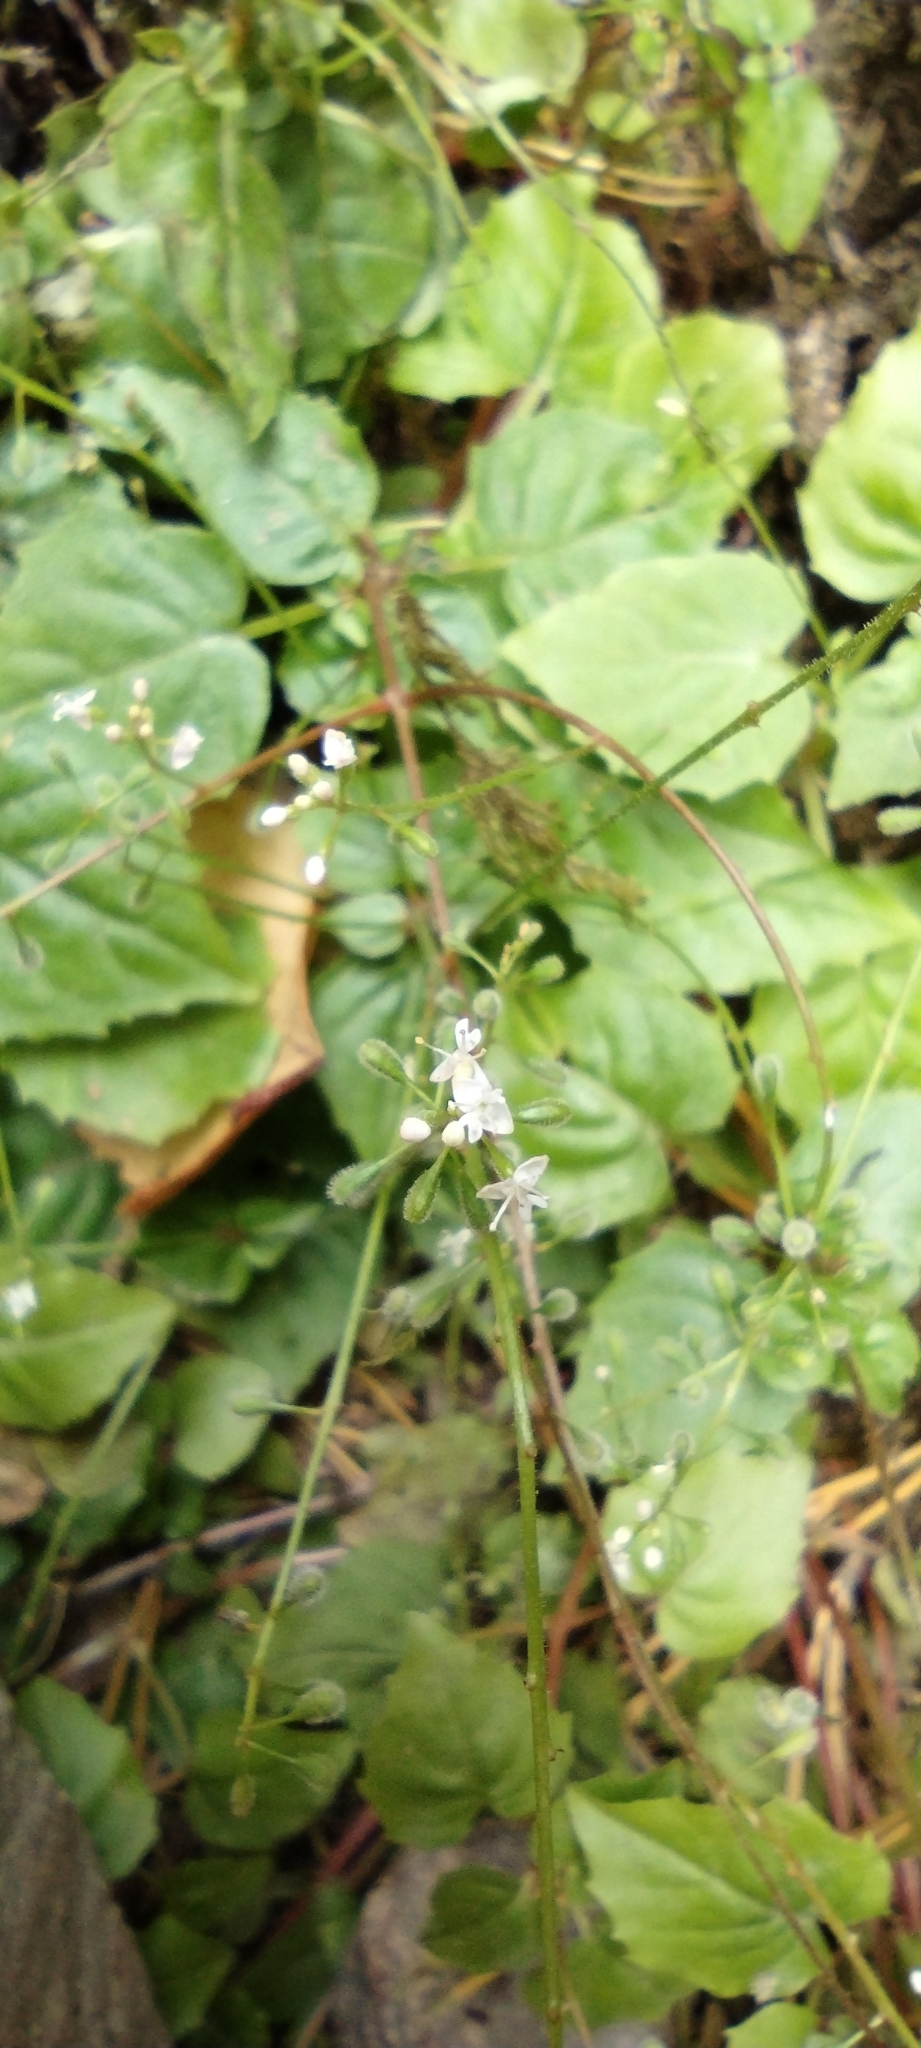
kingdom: Plantae
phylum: Tracheophyta
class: Magnoliopsida
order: Myrtales
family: Onagraceae
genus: Circaea
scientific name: Circaea alpina
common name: Alpine enchanter's-nightshade
